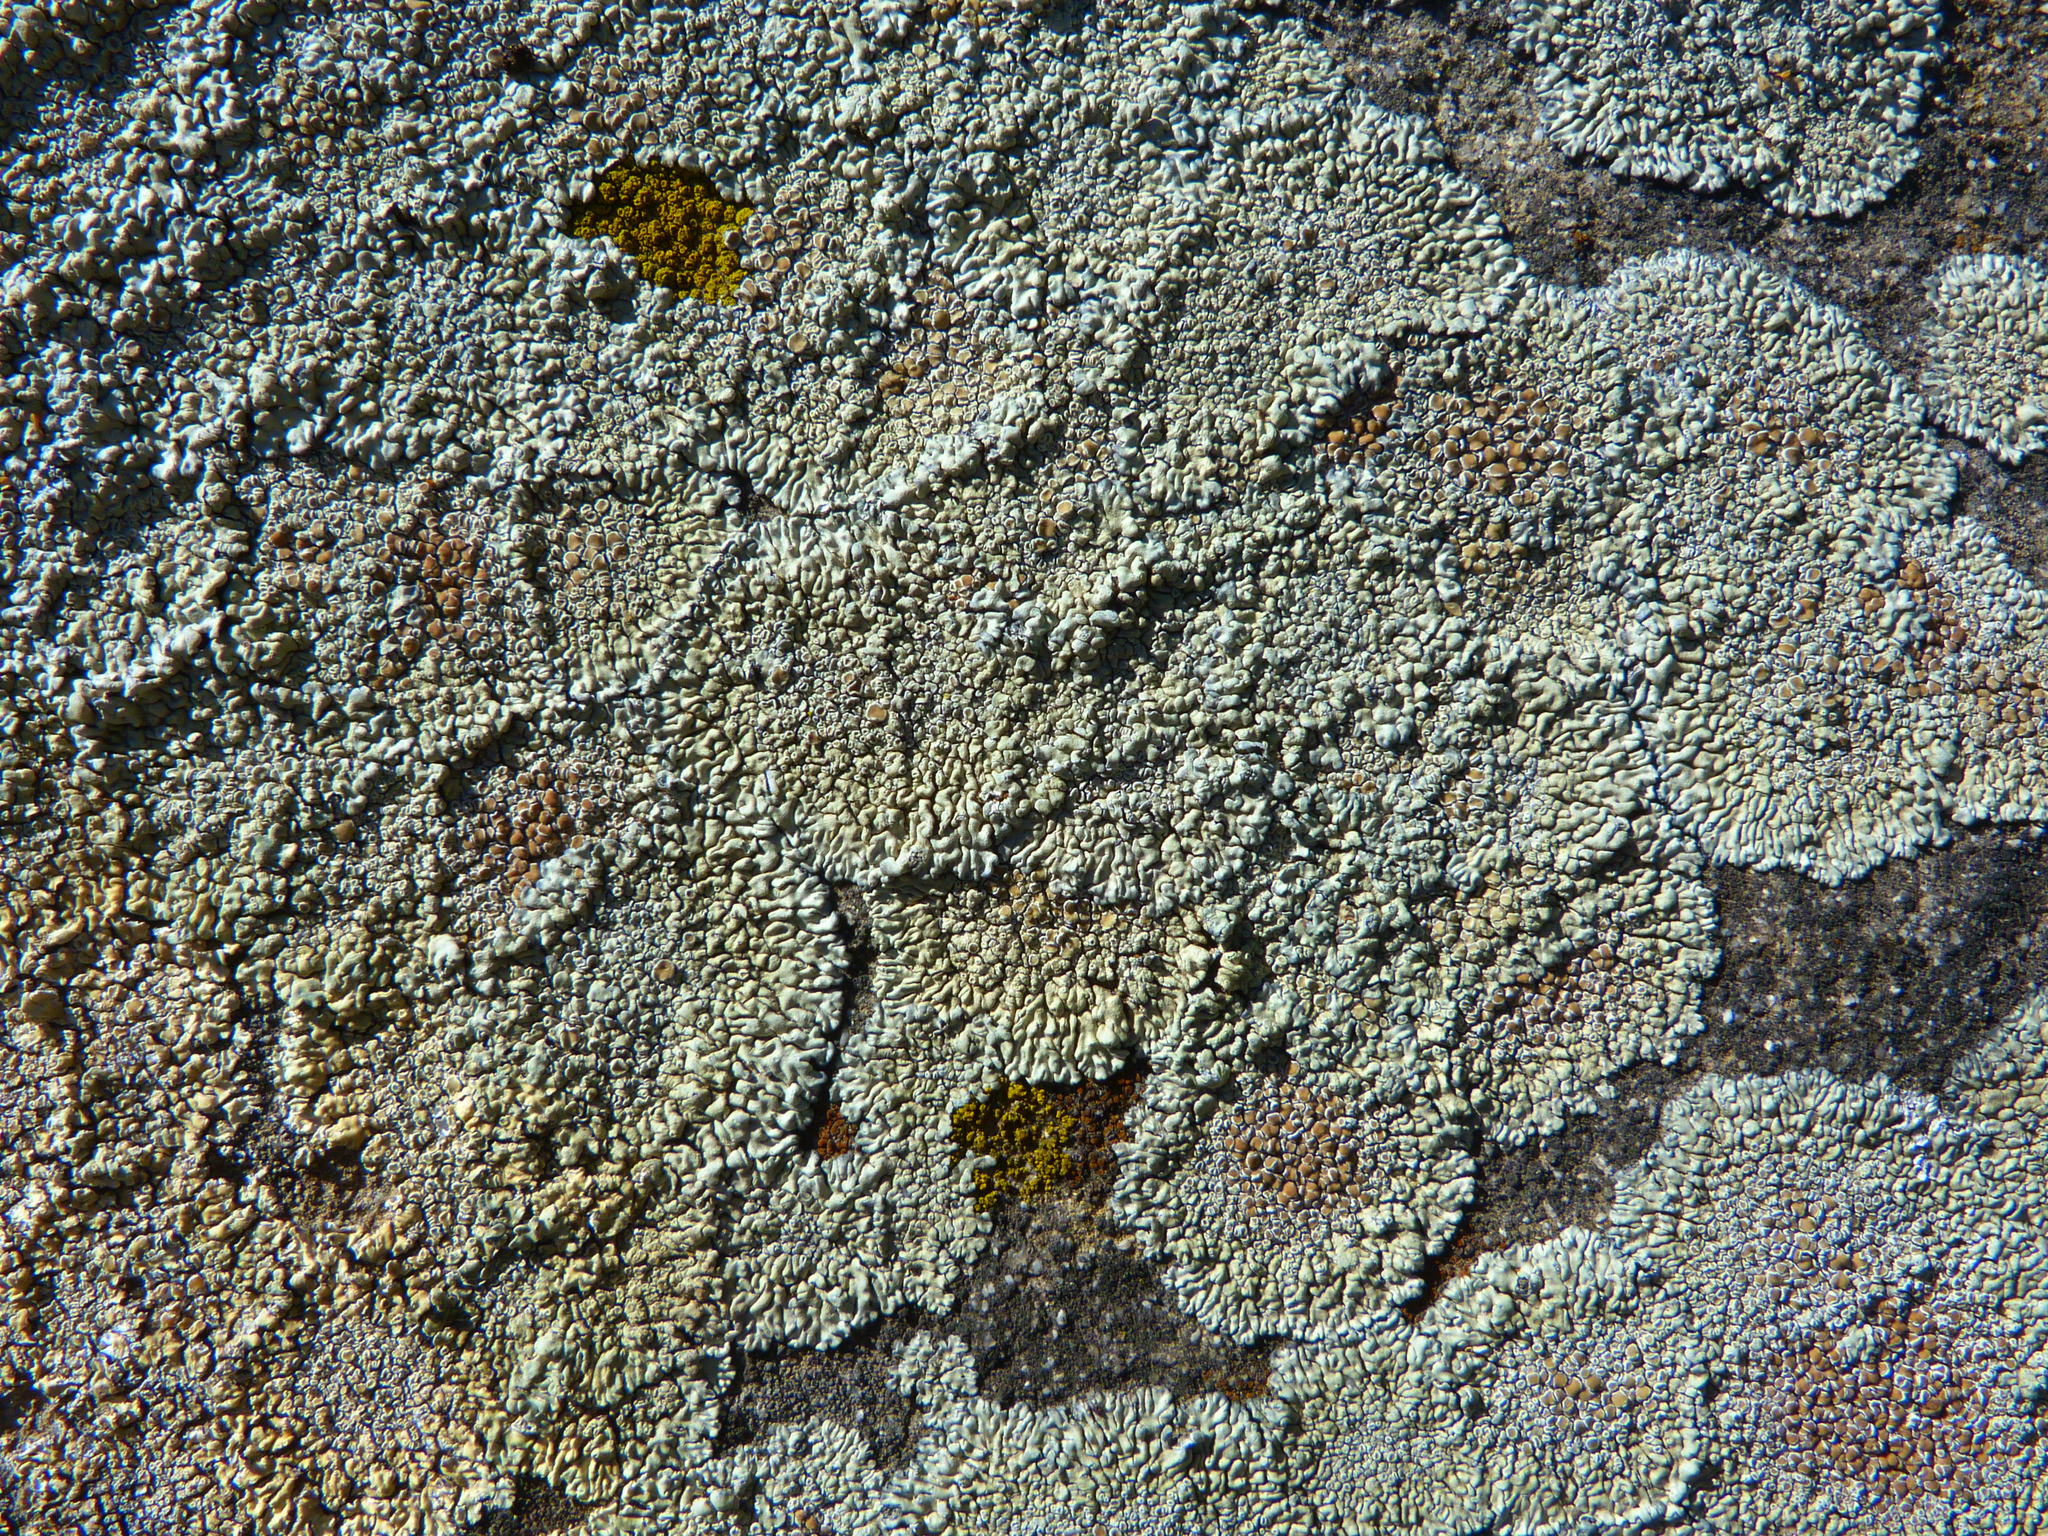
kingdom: Fungi
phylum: Ascomycota
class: Lecanoromycetes
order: Lecanorales
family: Lecanoraceae
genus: Protoparmeliopsis
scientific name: Protoparmeliopsis muralis
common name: Stonewall rim lichen
